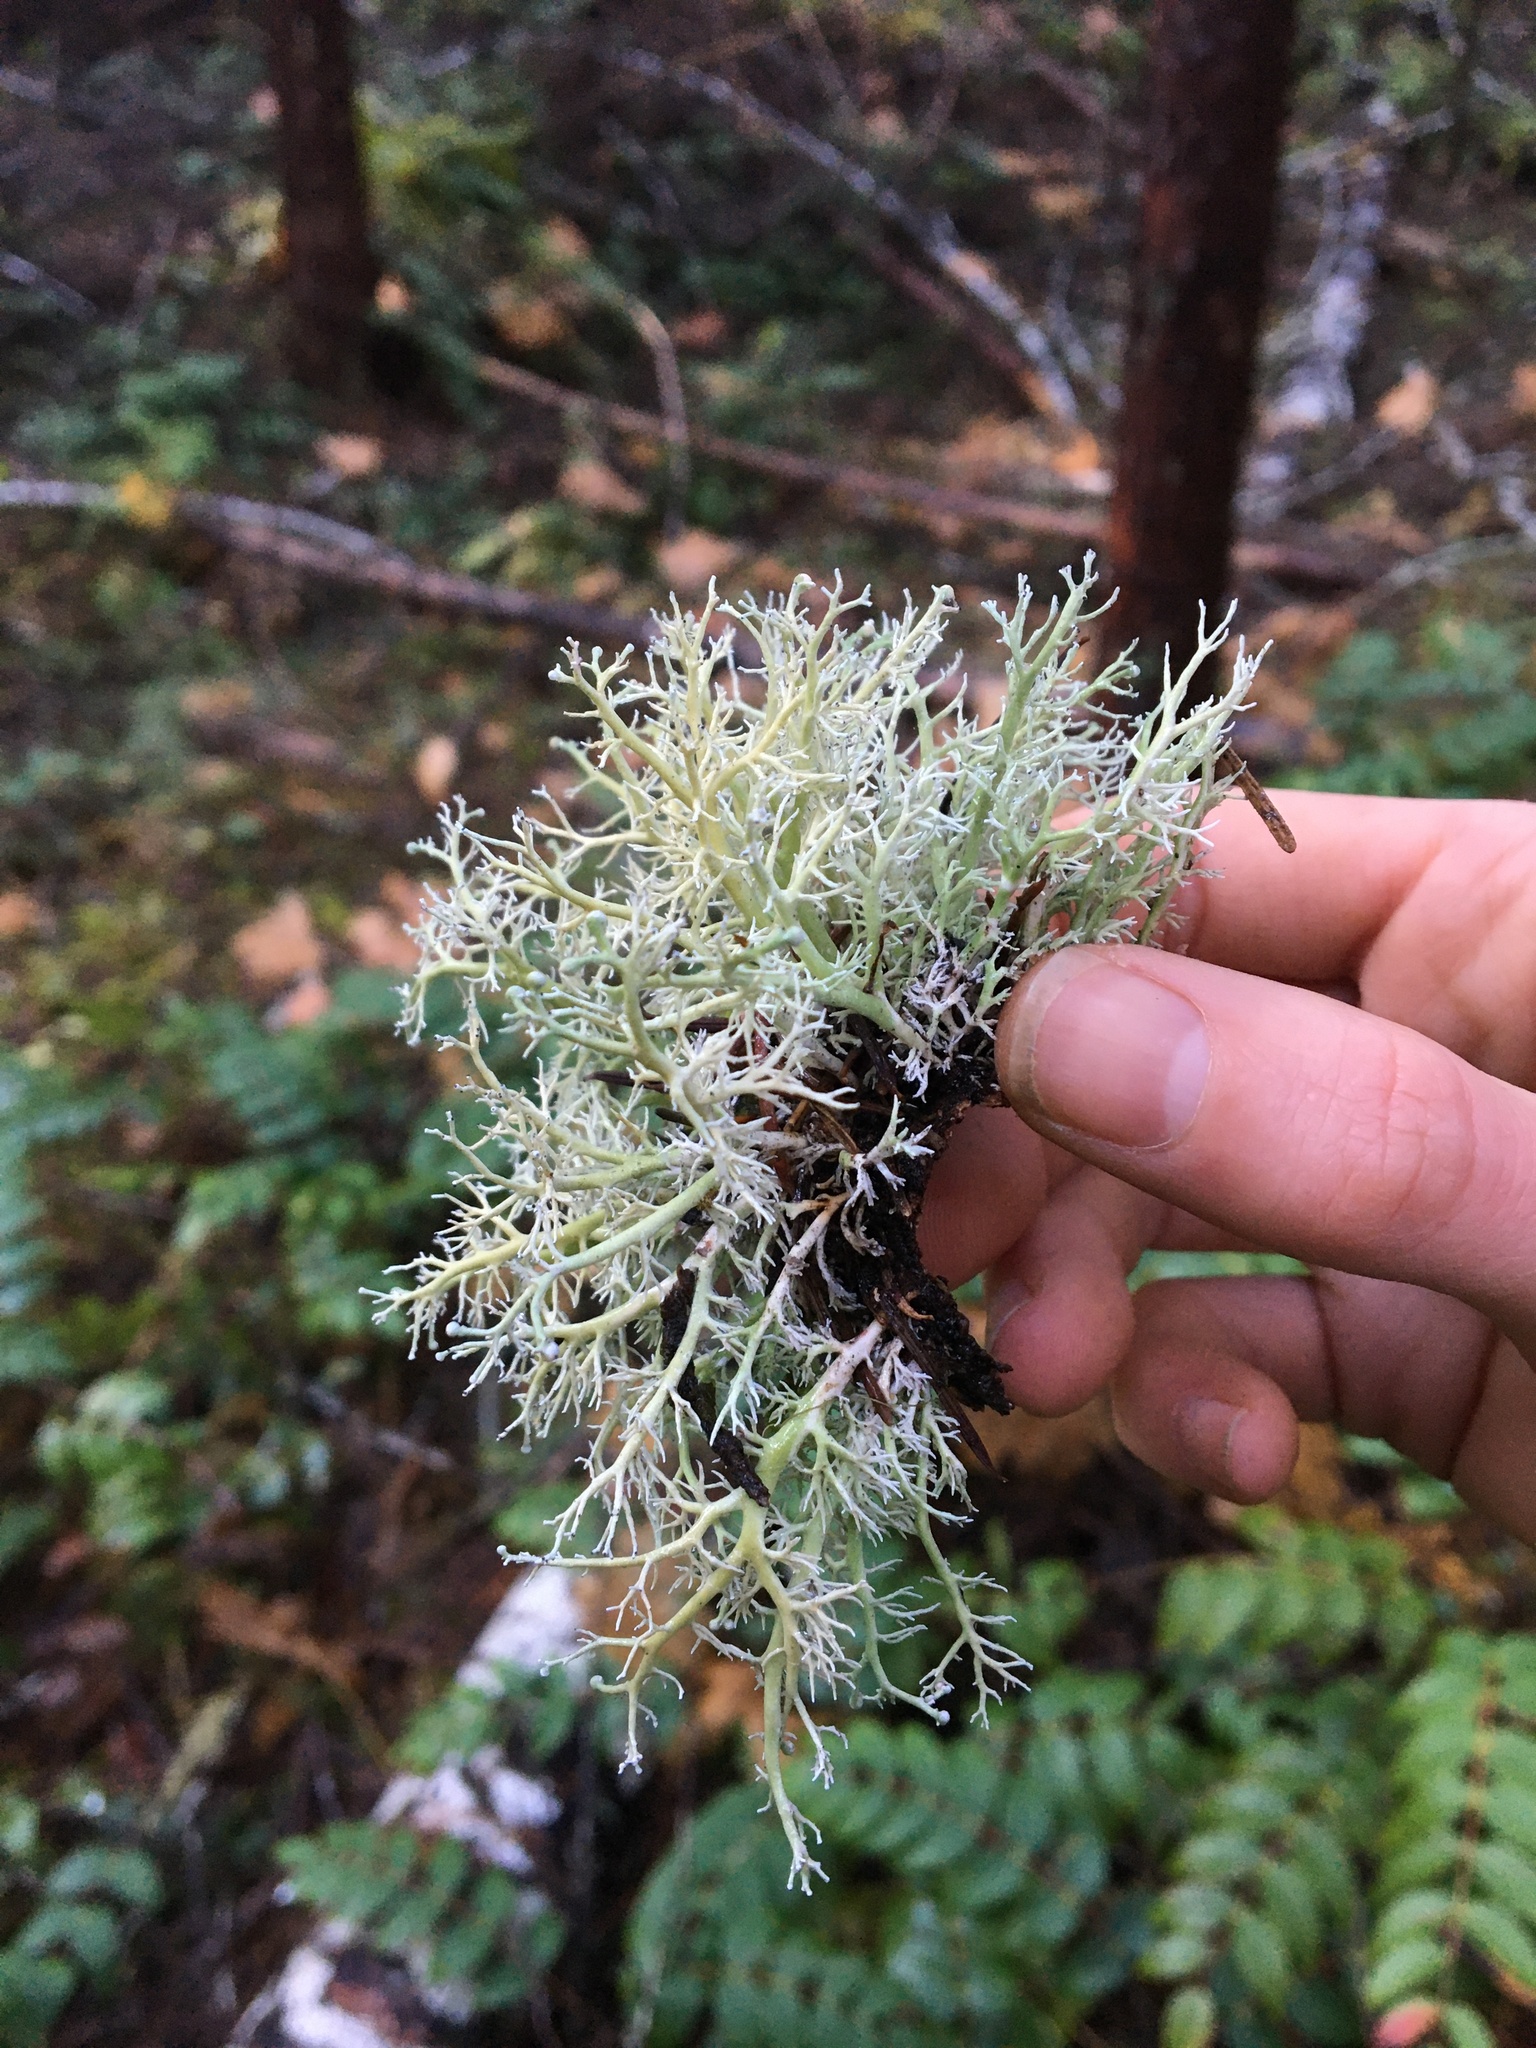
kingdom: Fungi
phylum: Ascomycota
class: Lecanoromycetes
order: Lecanorales
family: Sphaerophoraceae
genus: Sphaerophorus
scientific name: Sphaerophorus globosus
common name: Globe ball lichen
